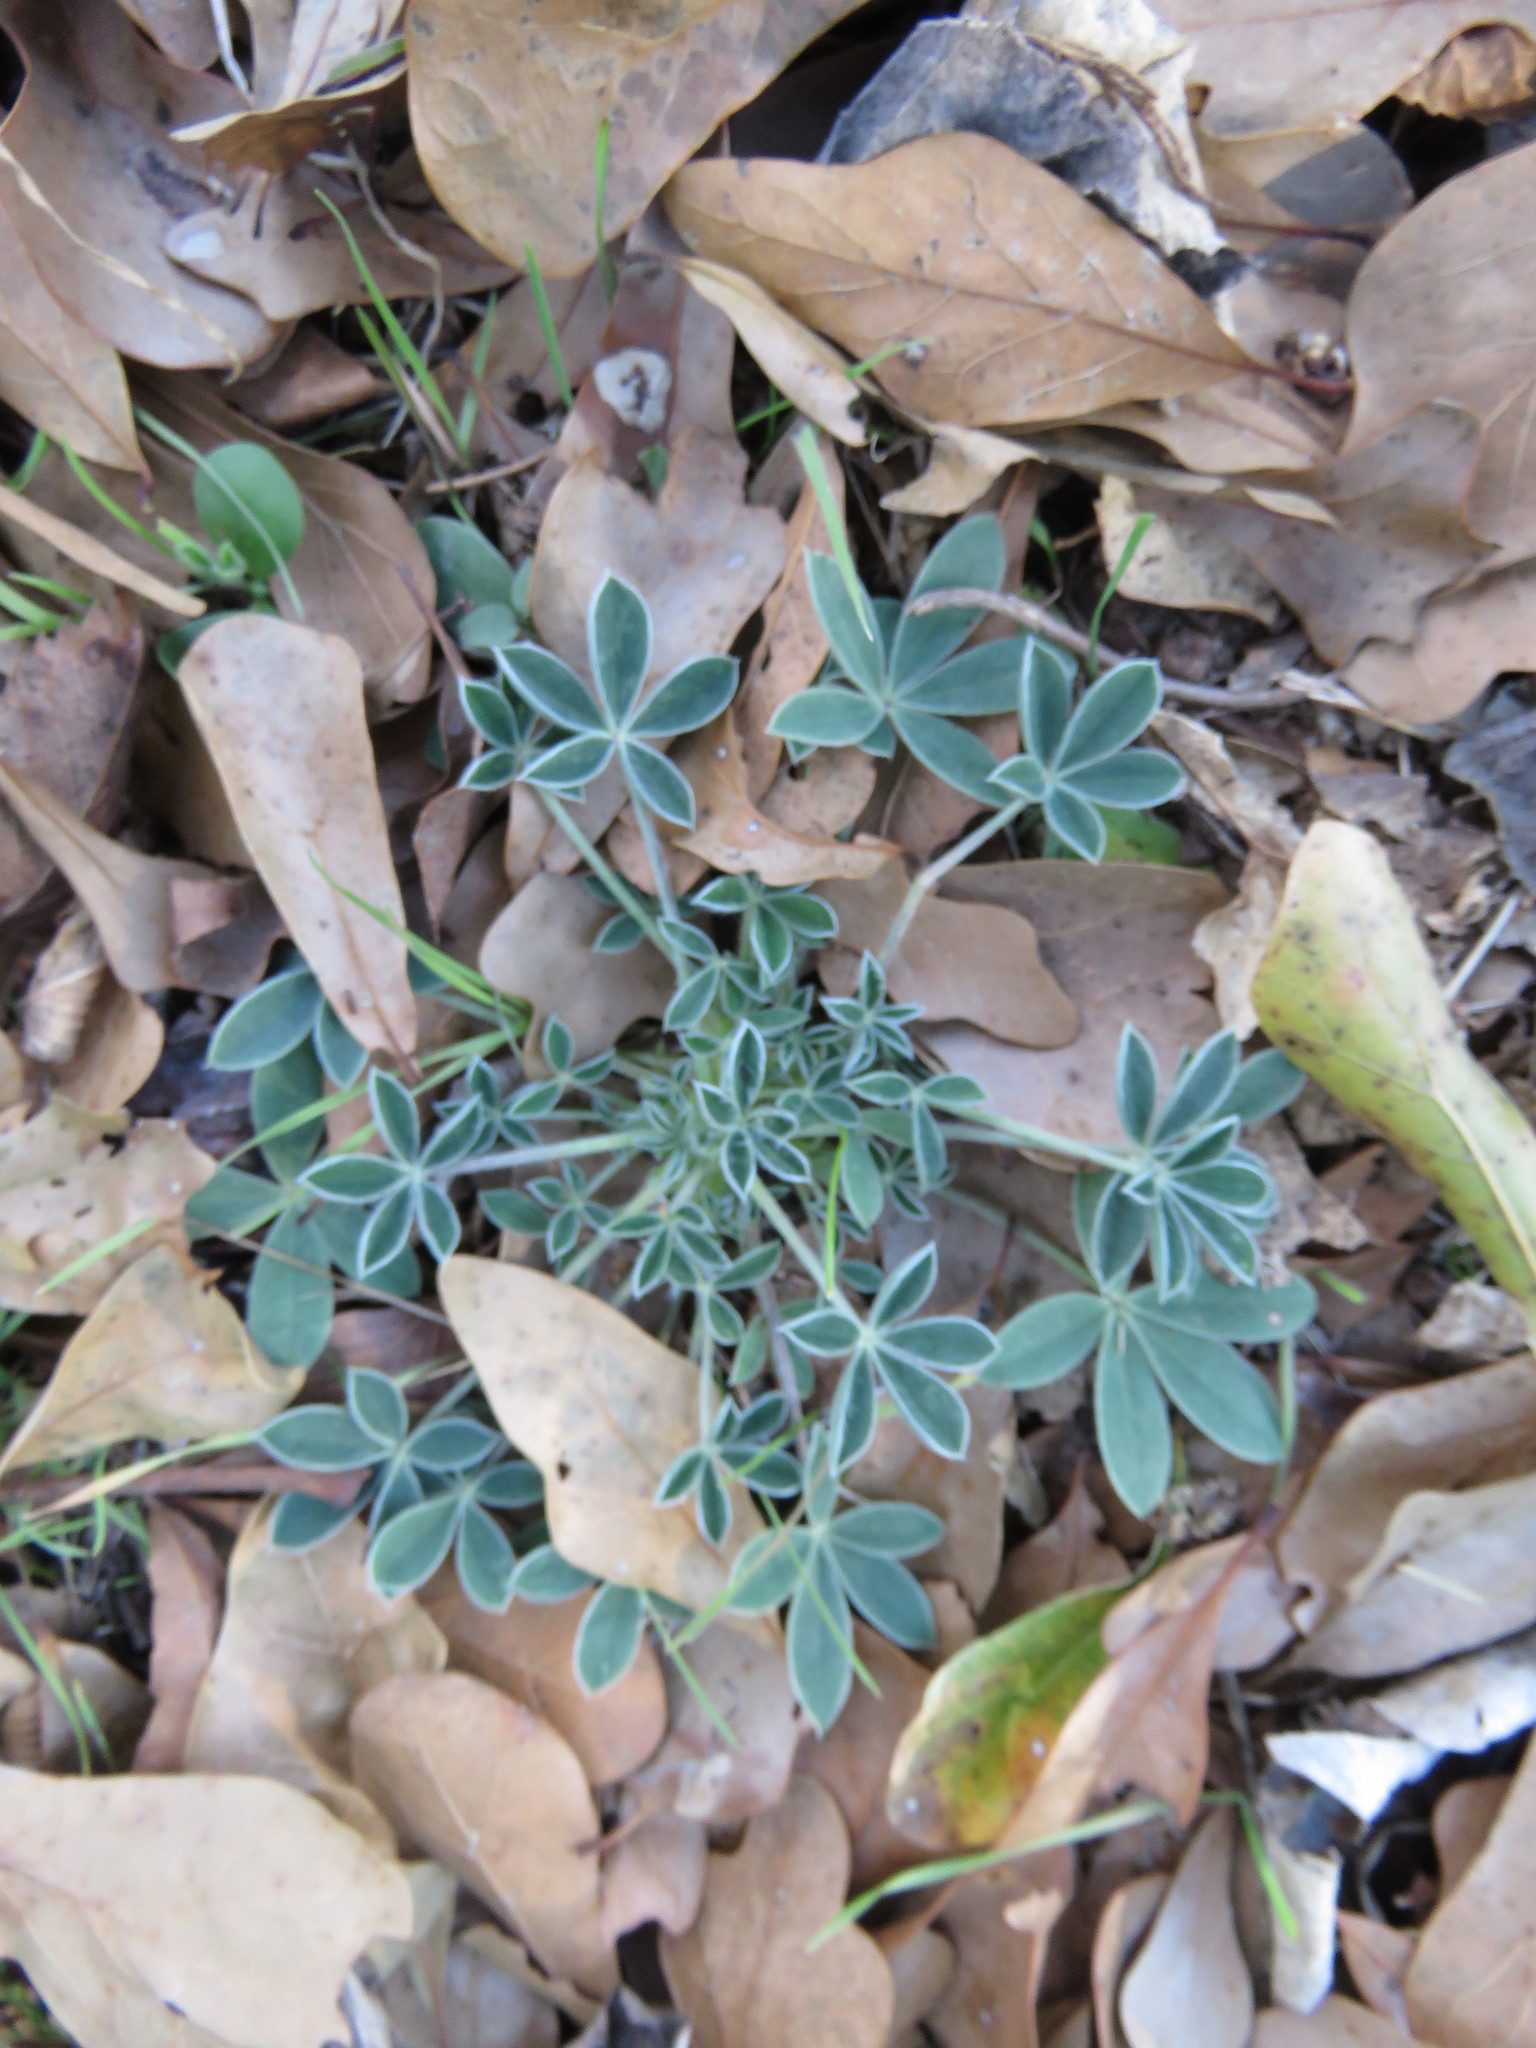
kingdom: Plantae
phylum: Tracheophyta
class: Magnoliopsida
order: Fabales
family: Fabaceae
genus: Lupinus
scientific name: Lupinus texensis
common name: Texas bluebonnet
